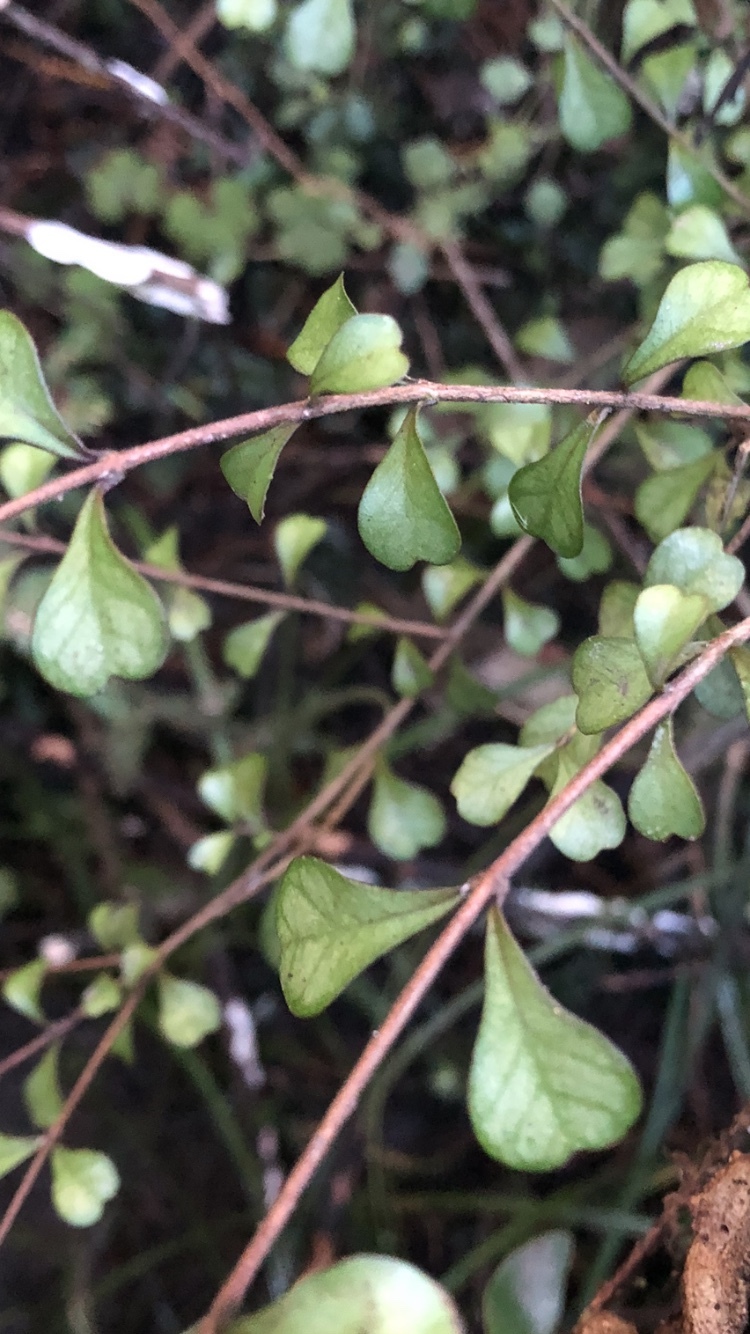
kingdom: Plantae
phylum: Tracheophyta
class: Magnoliopsida
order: Myrtales
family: Myrtaceae
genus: Lophomyrtus
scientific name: Lophomyrtus obcordata
